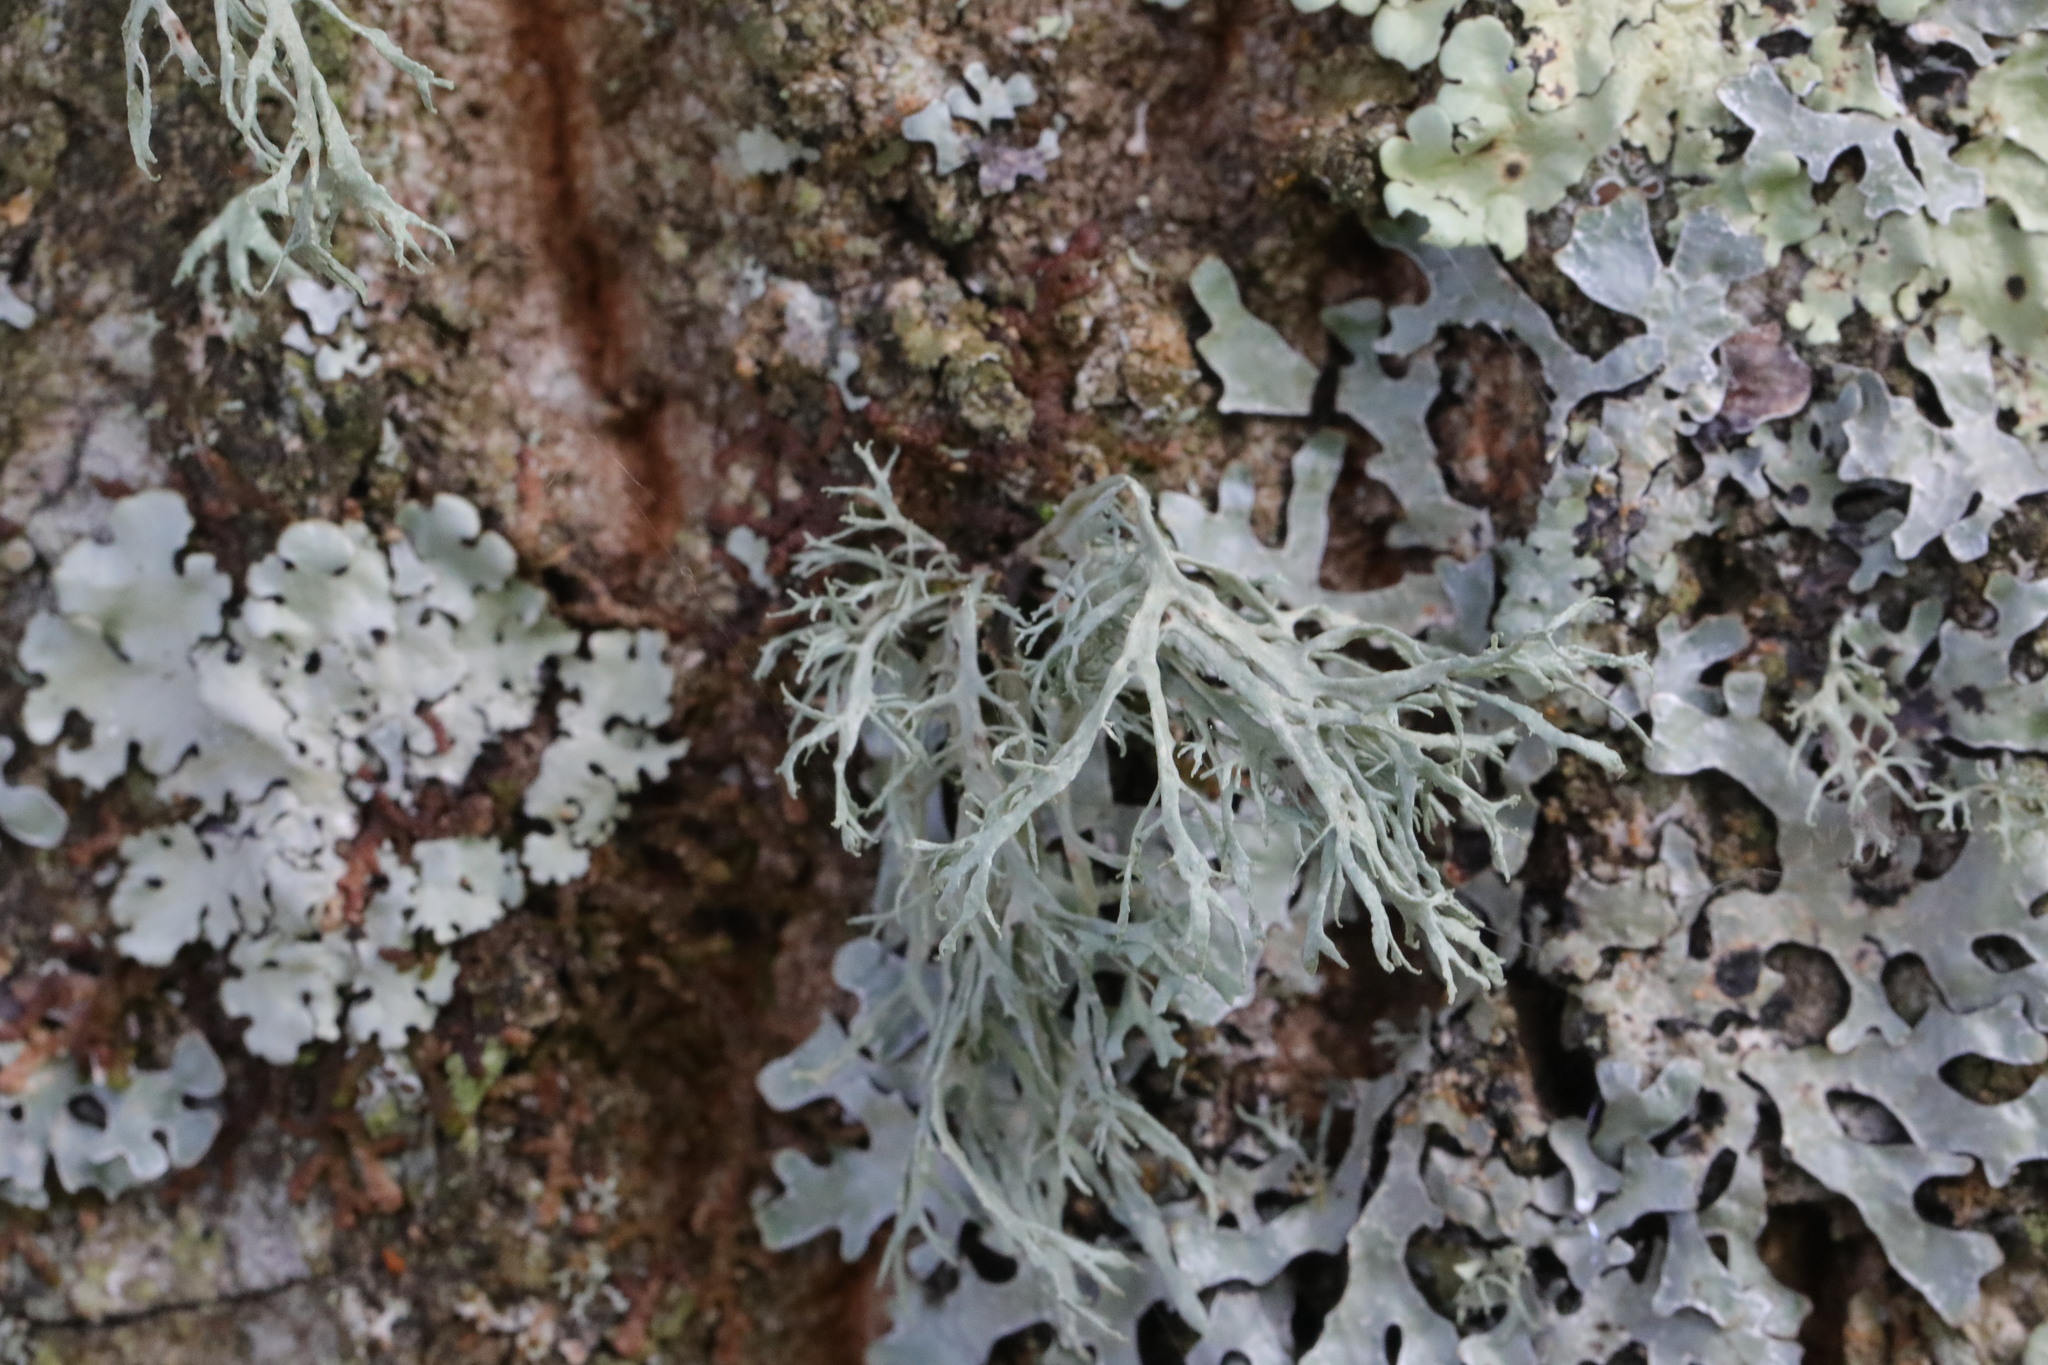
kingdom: Fungi
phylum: Ascomycota
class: Lecanoromycetes
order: Lecanorales
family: Ramalinaceae
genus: Ramalina
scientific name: Ramalina farinacea
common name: Farinose cartilage lichen
